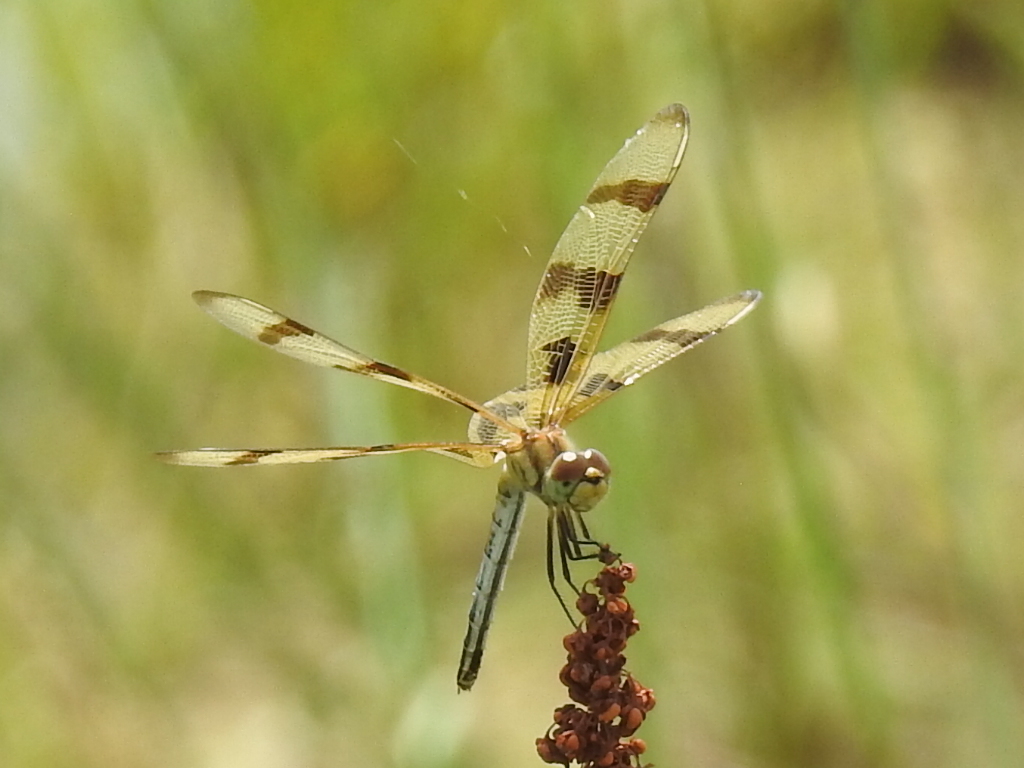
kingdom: Animalia
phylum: Arthropoda
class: Insecta
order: Odonata
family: Libellulidae
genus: Celithemis
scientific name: Celithemis eponina
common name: Halloween pennant
